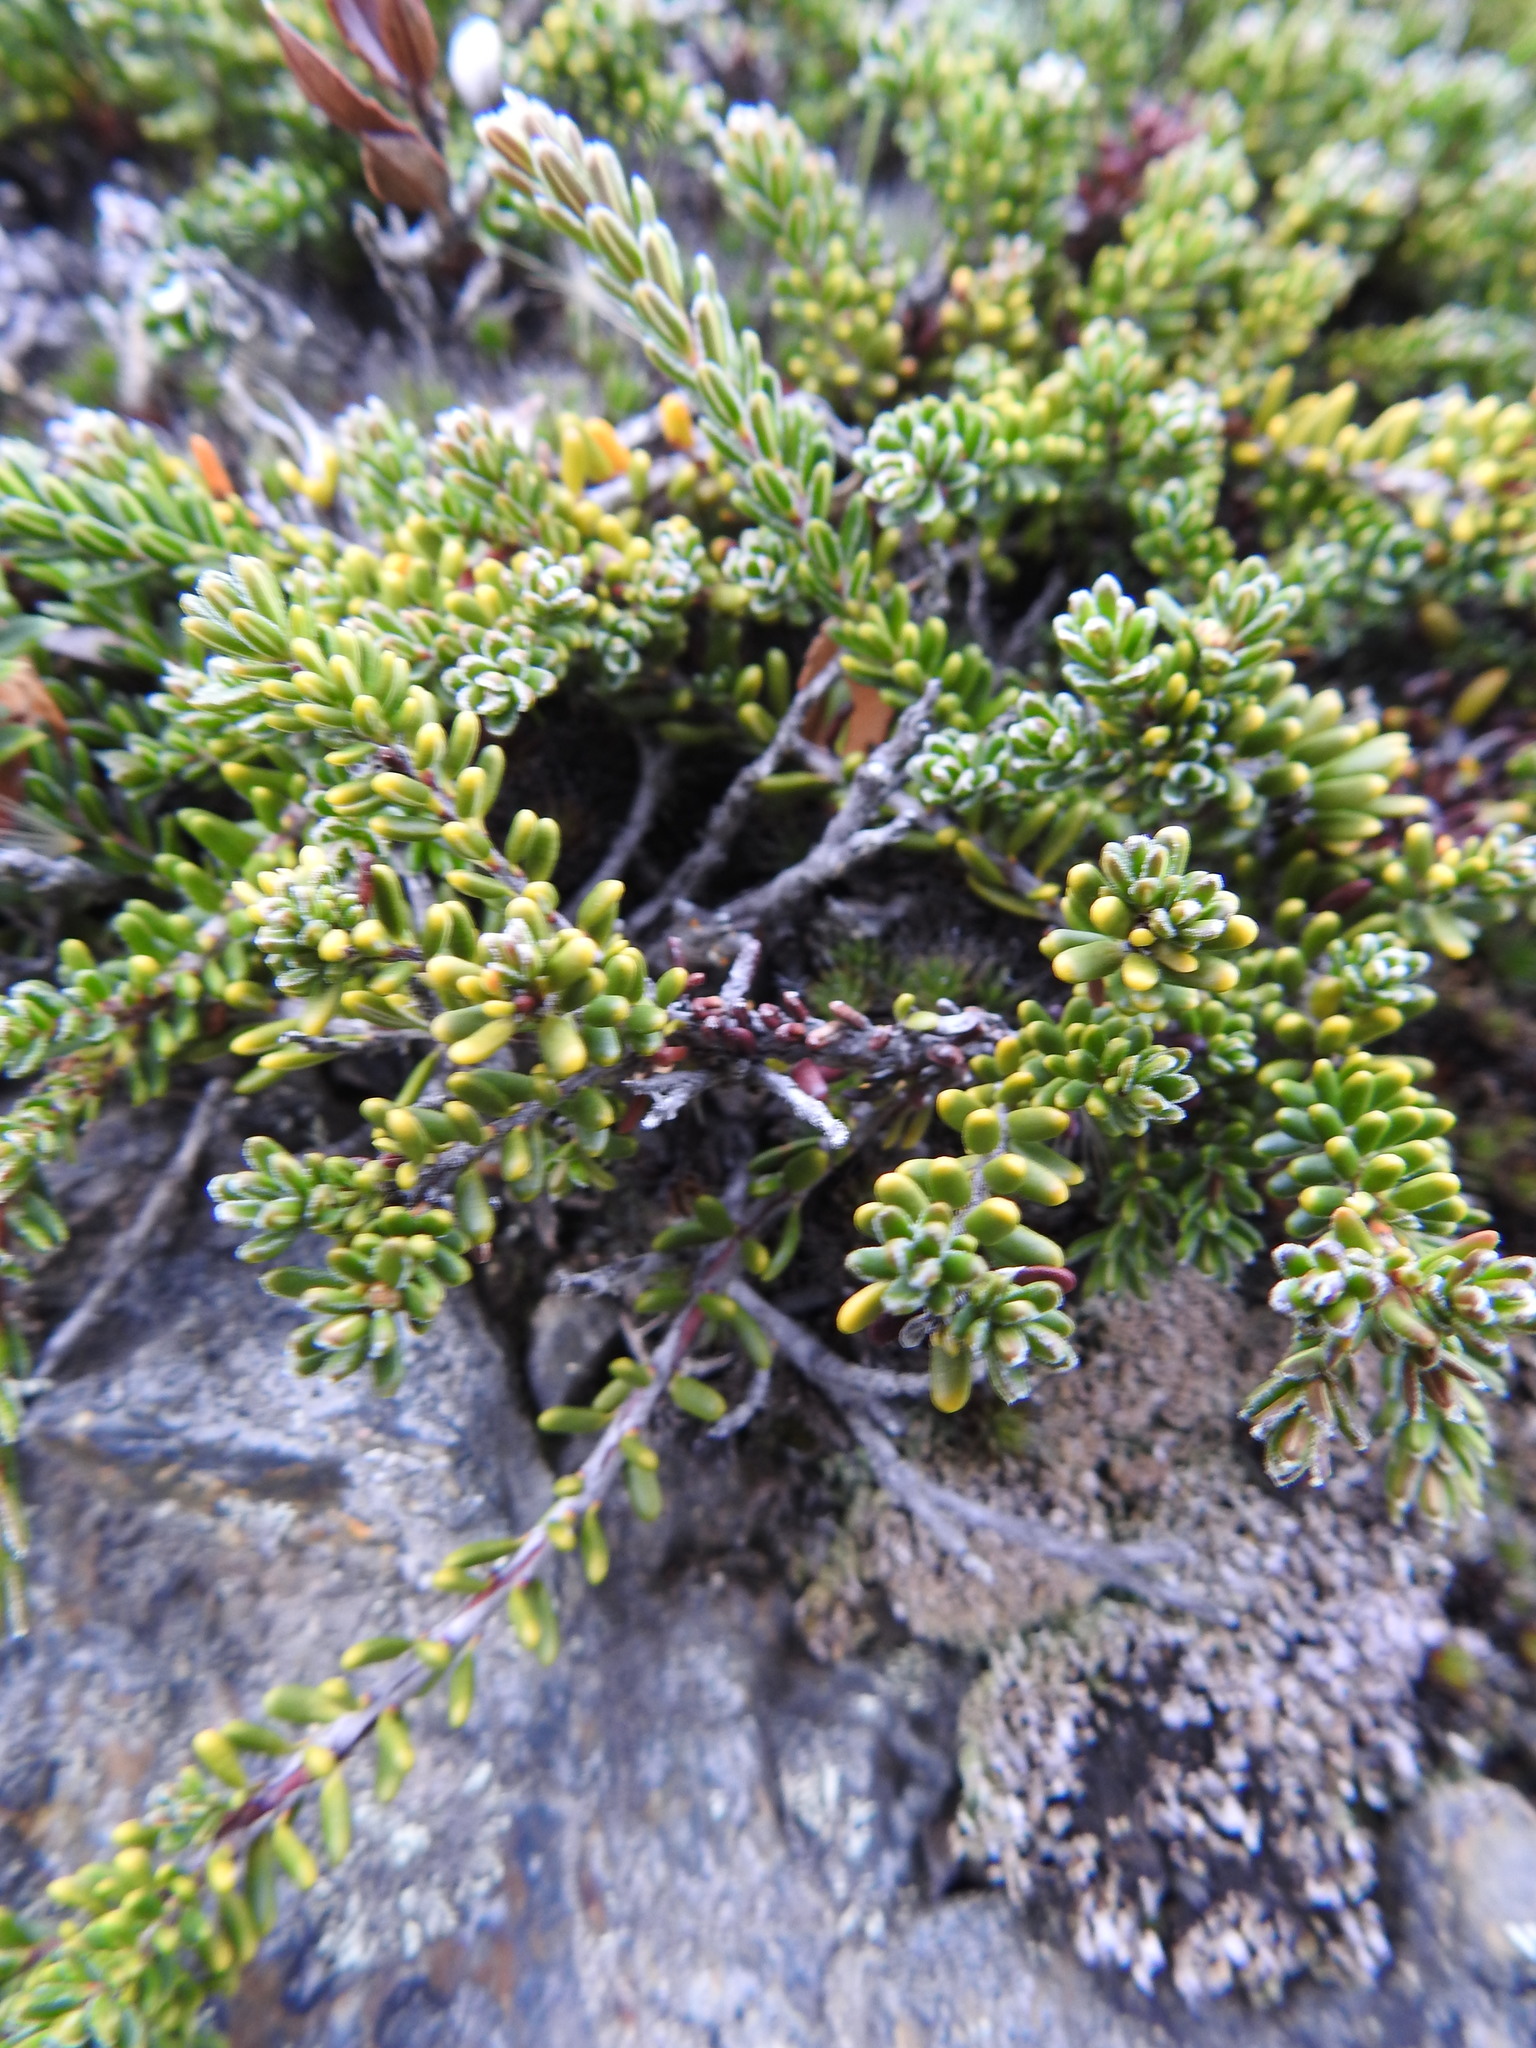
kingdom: Plantae
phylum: Tracheophyta
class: Magnoliopsida
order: Ericales
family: Ericaceae
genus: Empetrum
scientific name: Empetrum rubrum
